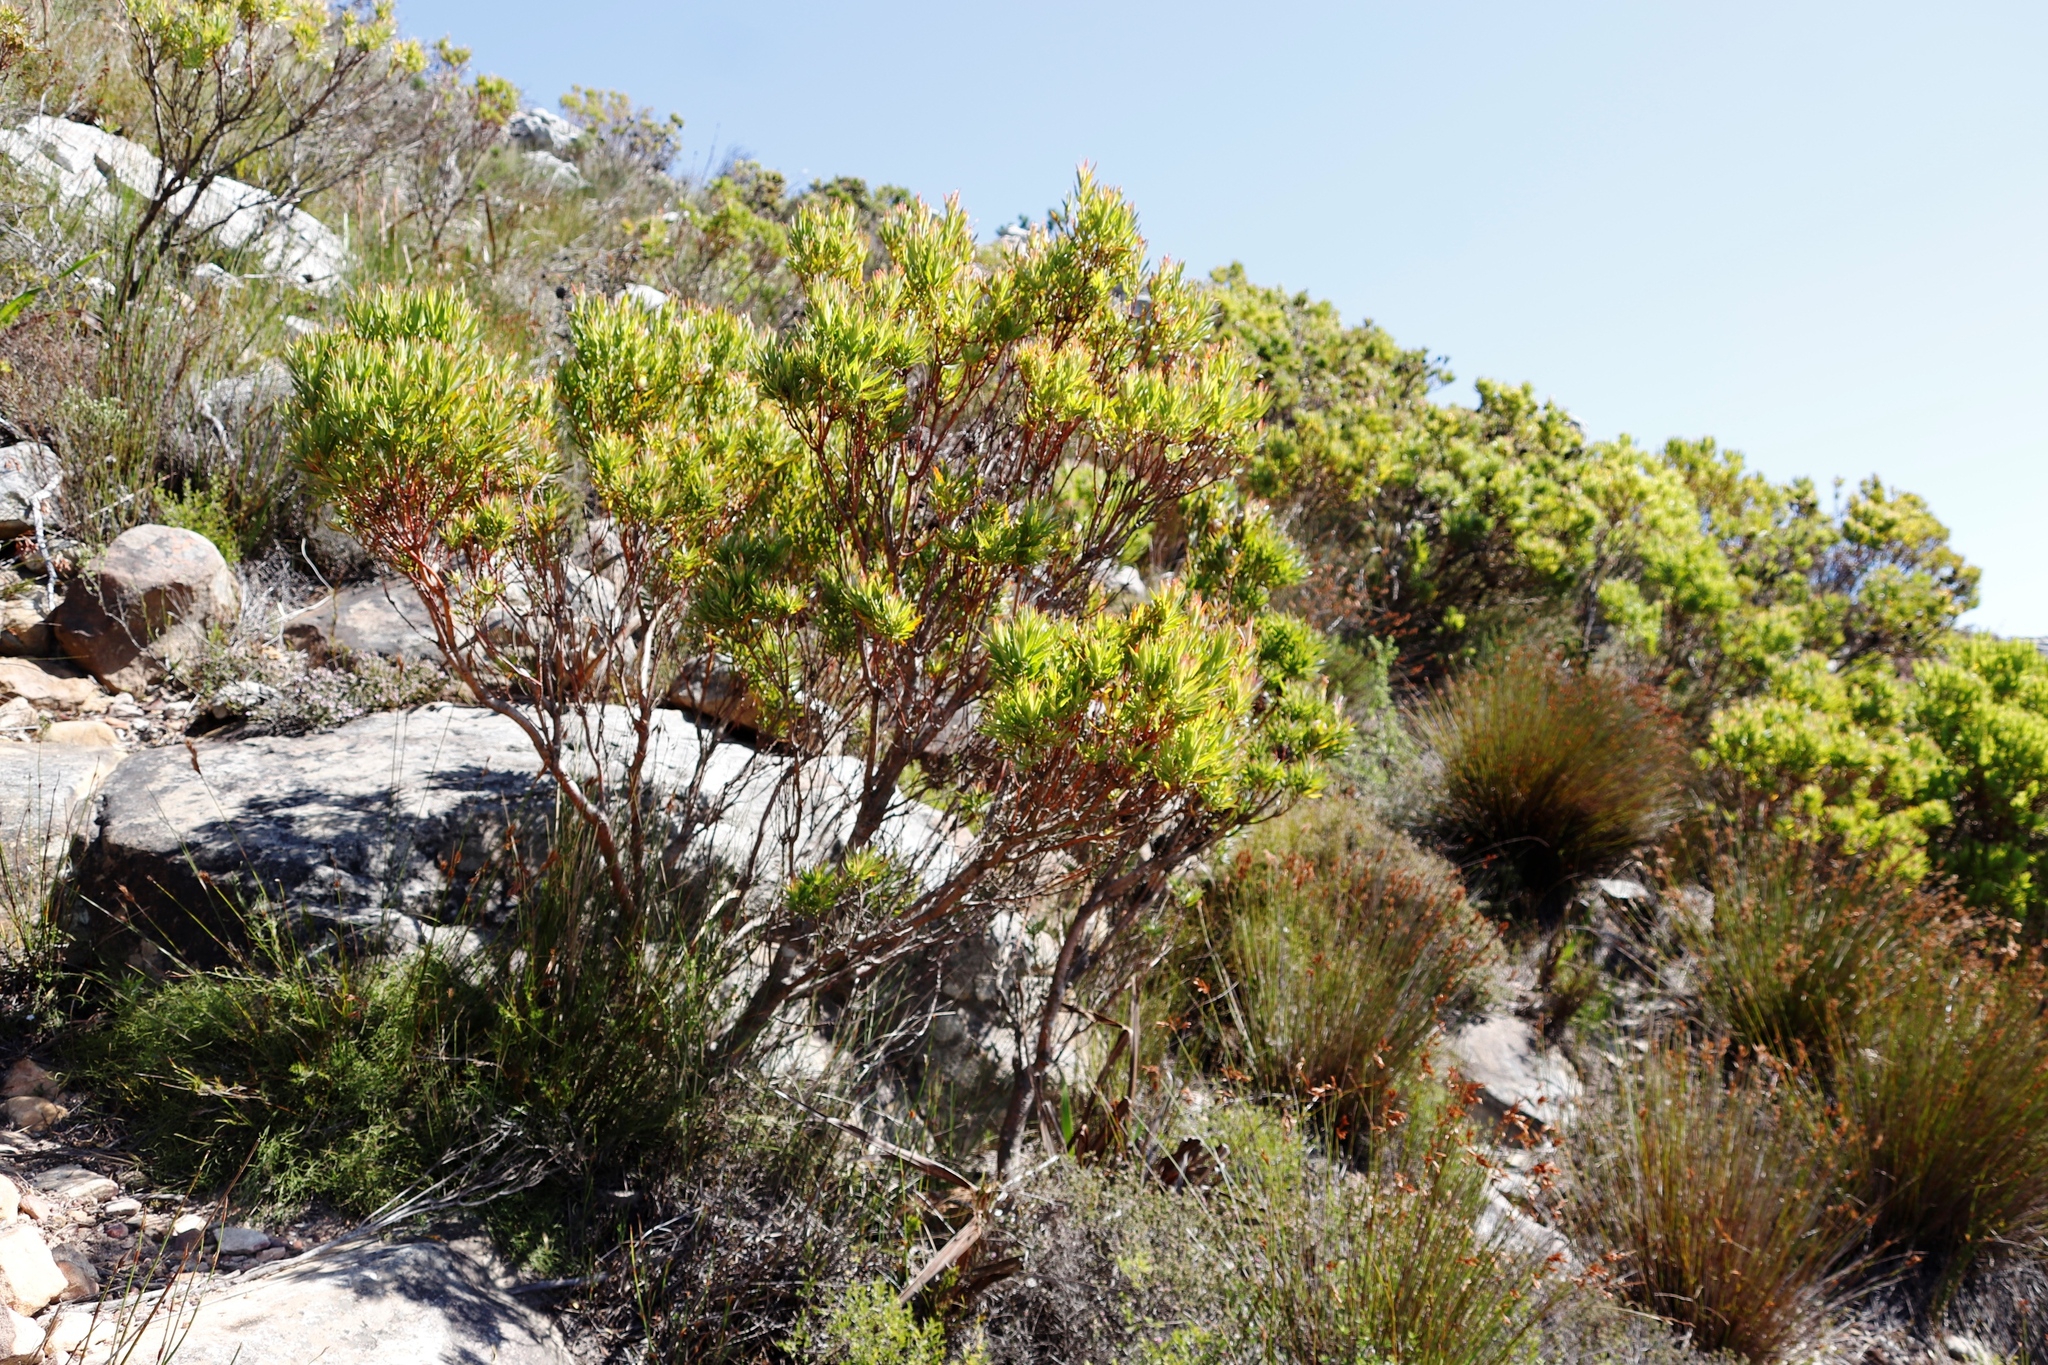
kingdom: Plantae
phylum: Tracheophyta
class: Magnoliopsida
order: Proteales
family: Proteaceae
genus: Leucadendron
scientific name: Leucadendron xanthoconus
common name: Sickle-leaf conebush
